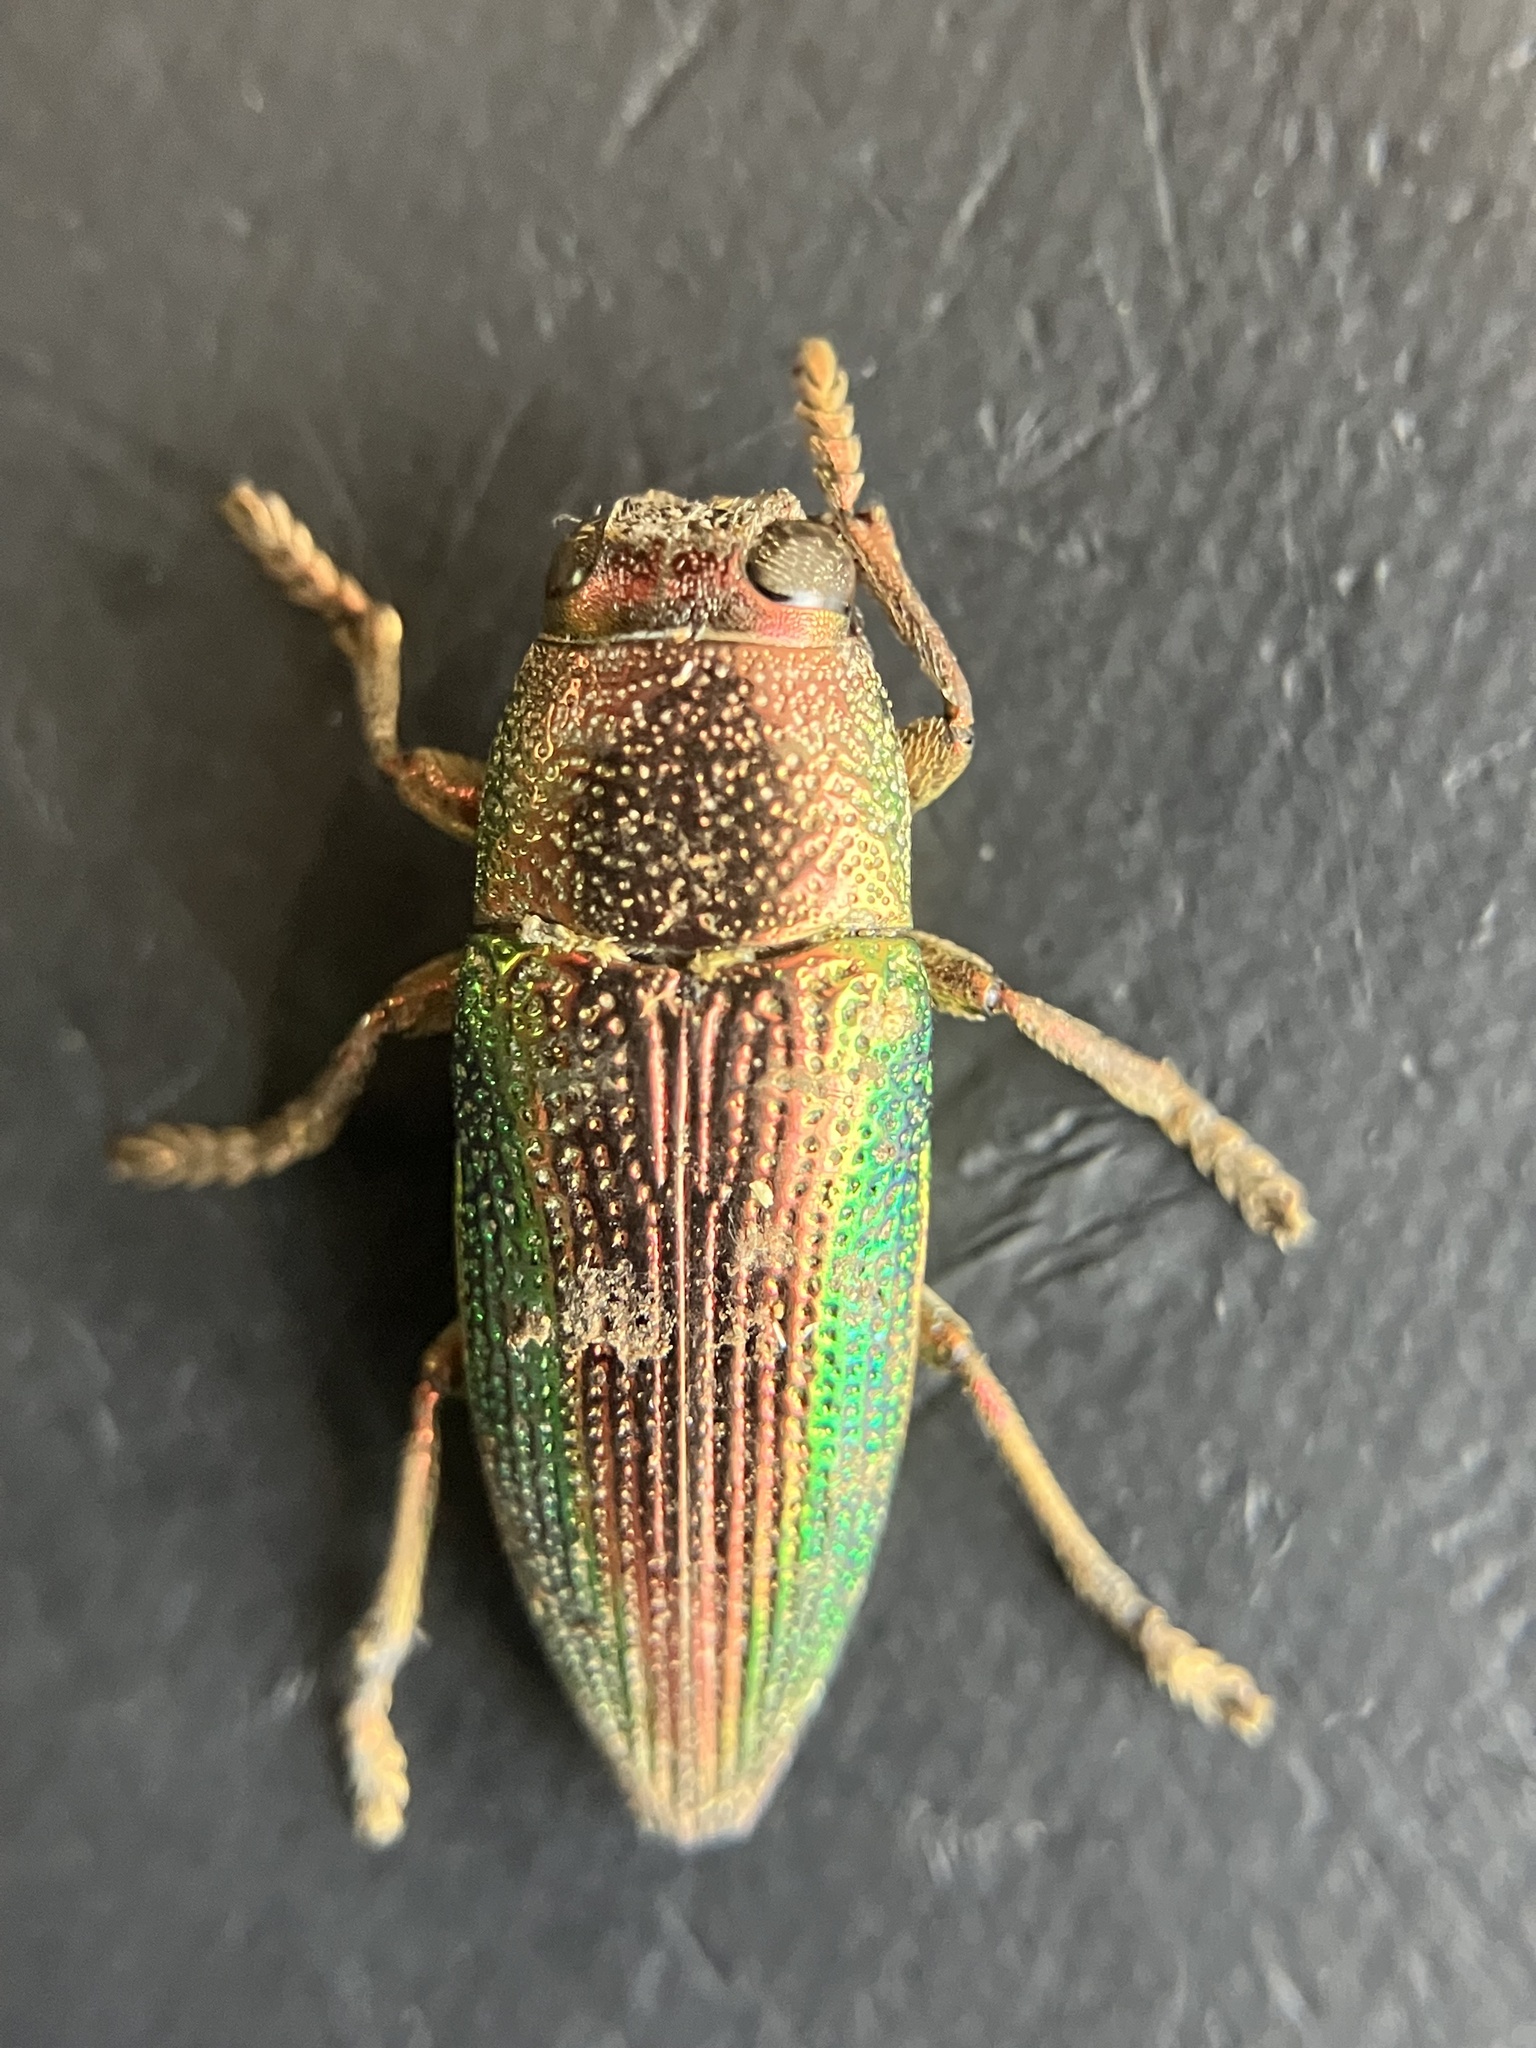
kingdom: Animalia
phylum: Arthropoda
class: Insecta
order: Coleoptera
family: Buprestidae
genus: Lampetis
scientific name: Lampetis fastuosa
